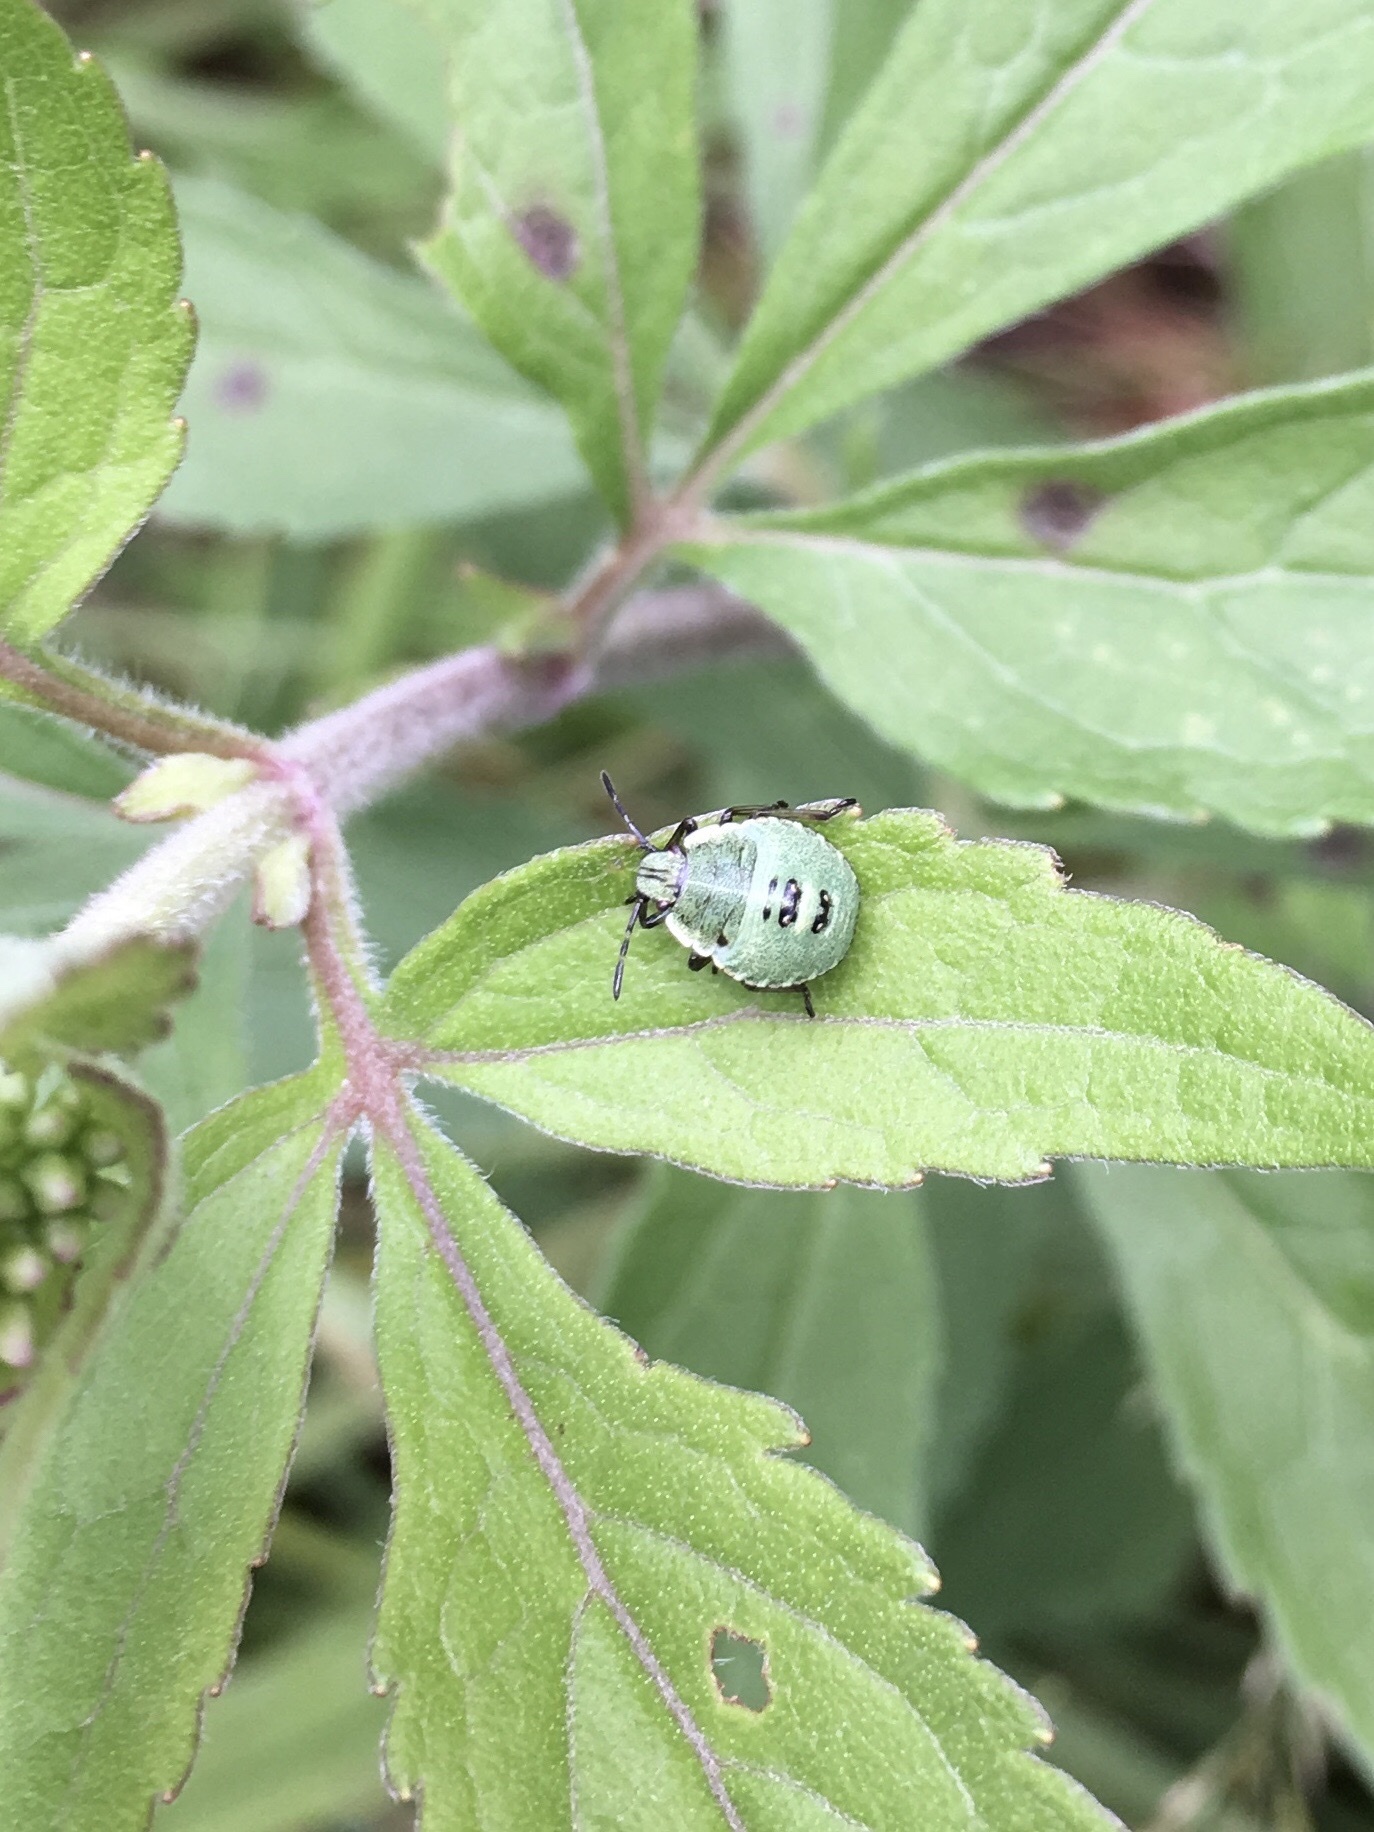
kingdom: Animalia
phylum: Arthropoda
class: Insecta
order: Hemiptera
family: Pentatomidae
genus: Palomena
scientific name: Palomena prasina
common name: Green shieldbug
